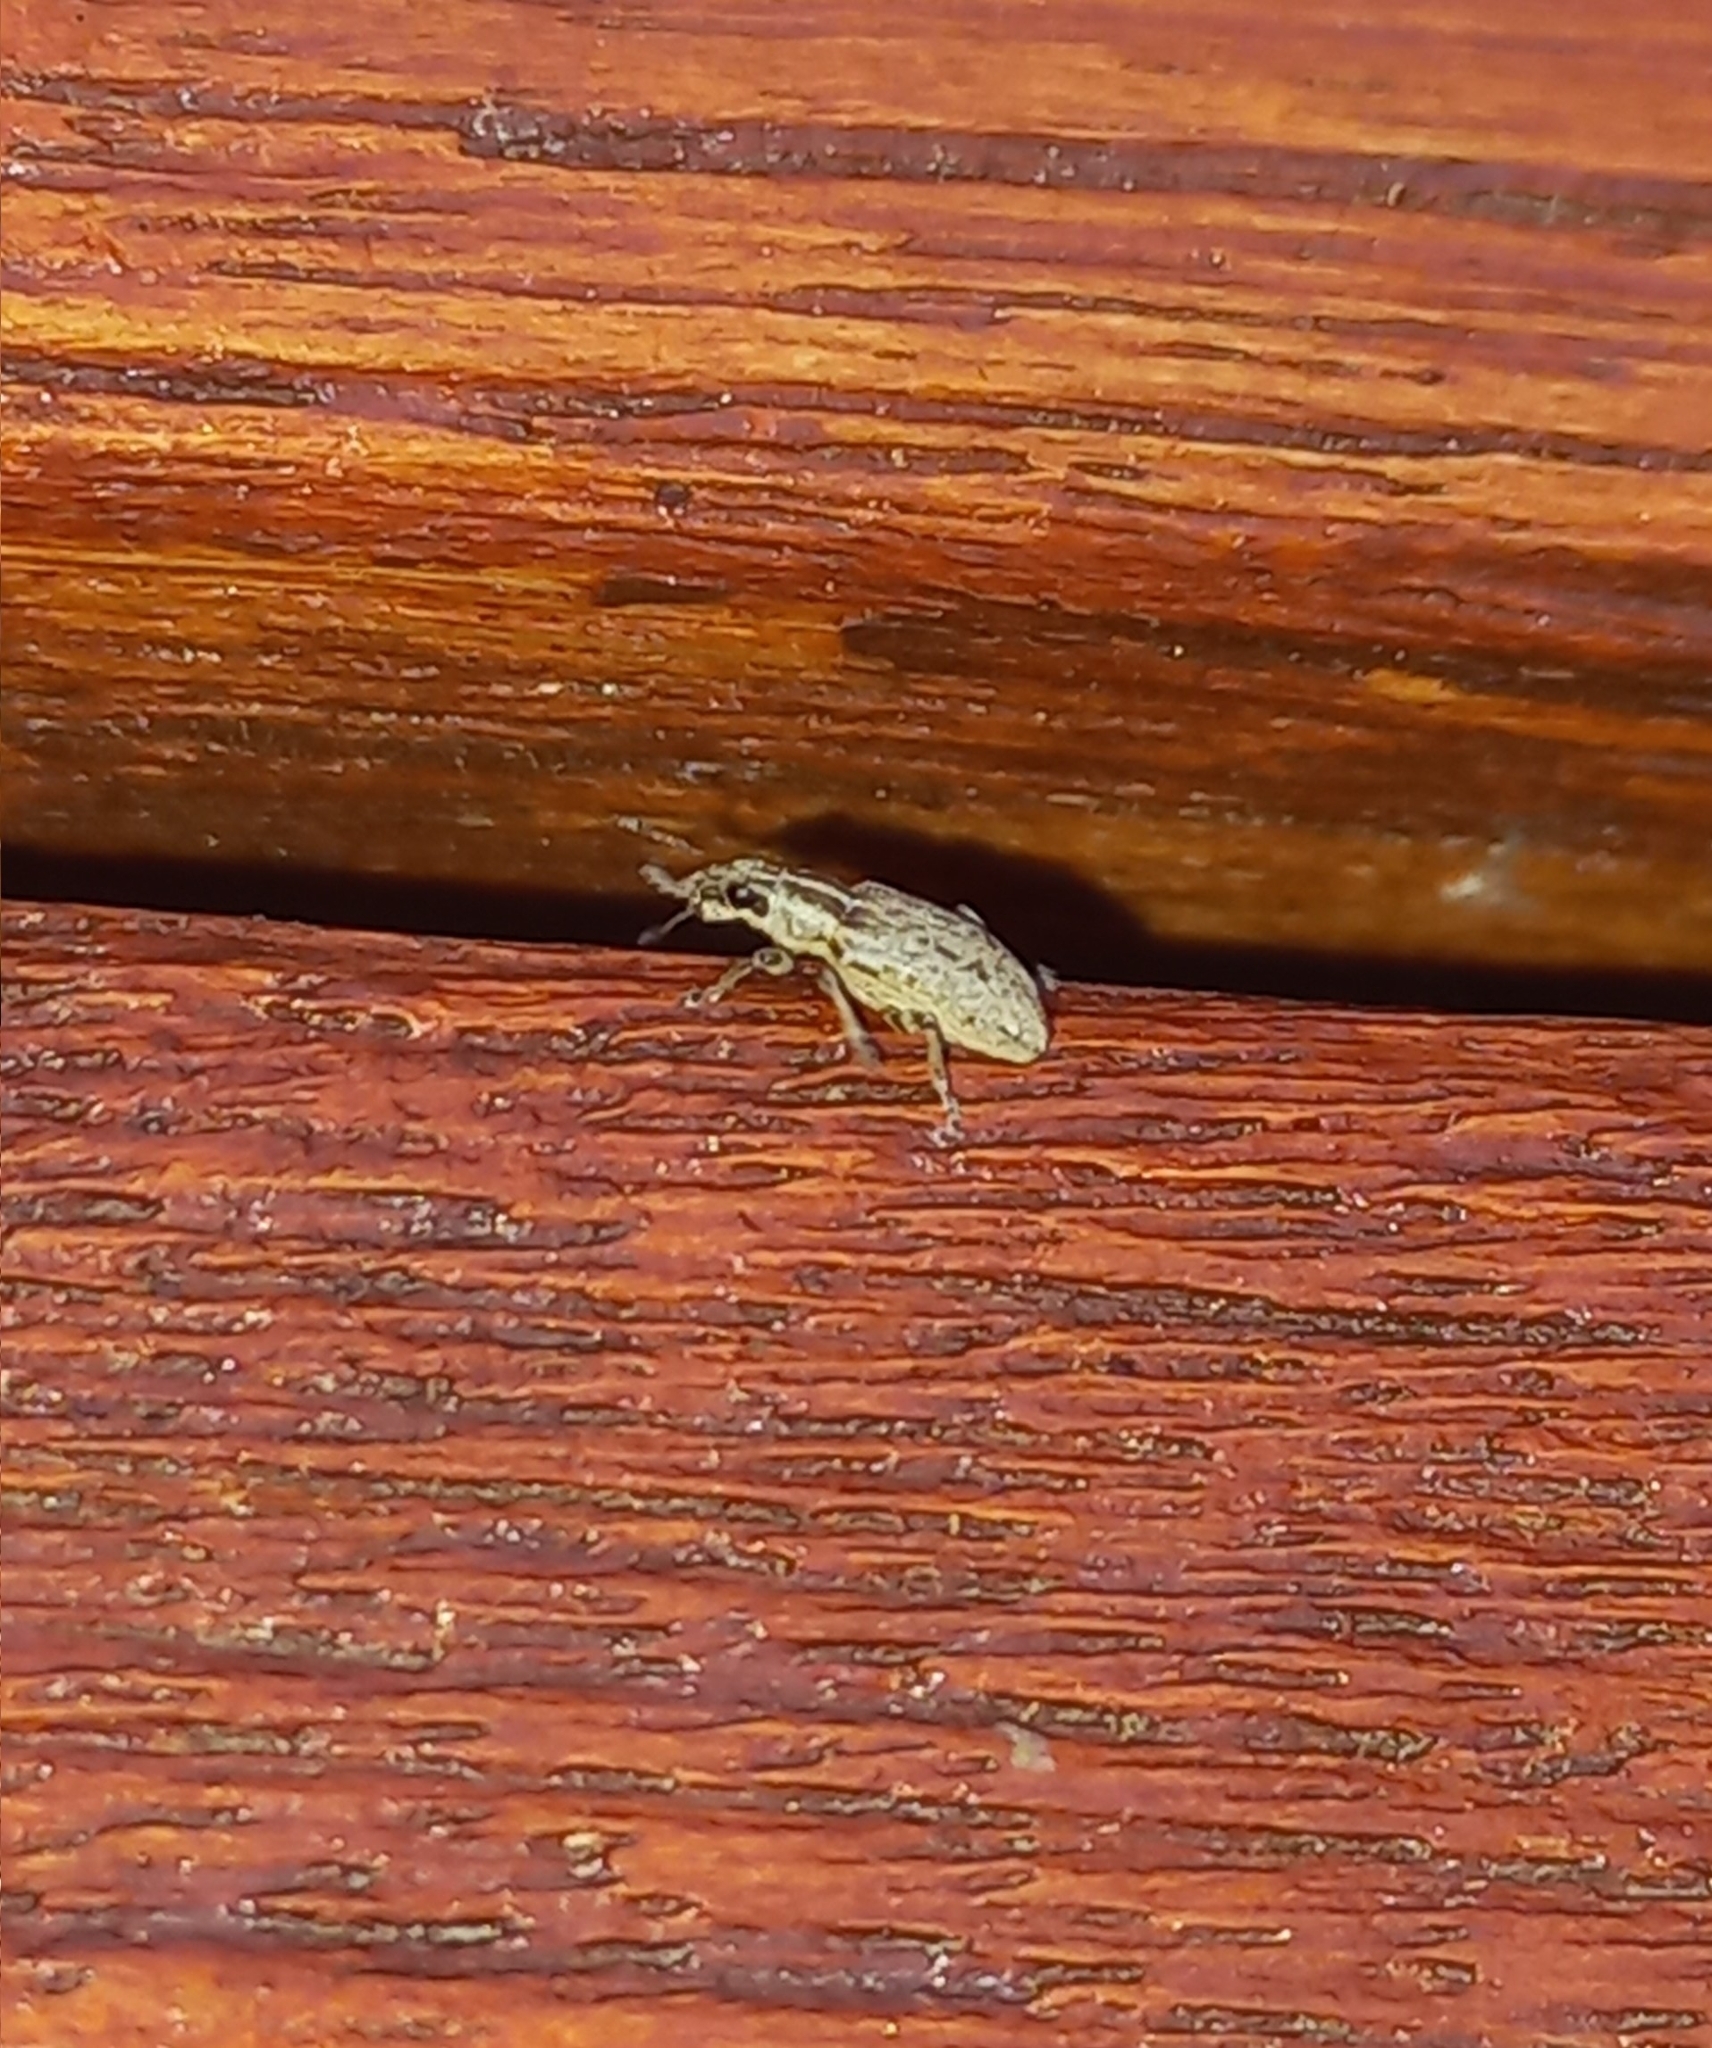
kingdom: Animalia
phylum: Arthropoda
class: Insecta
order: Coleoptera
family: Curculionidae
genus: Sitona
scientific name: Sitona discoideus
